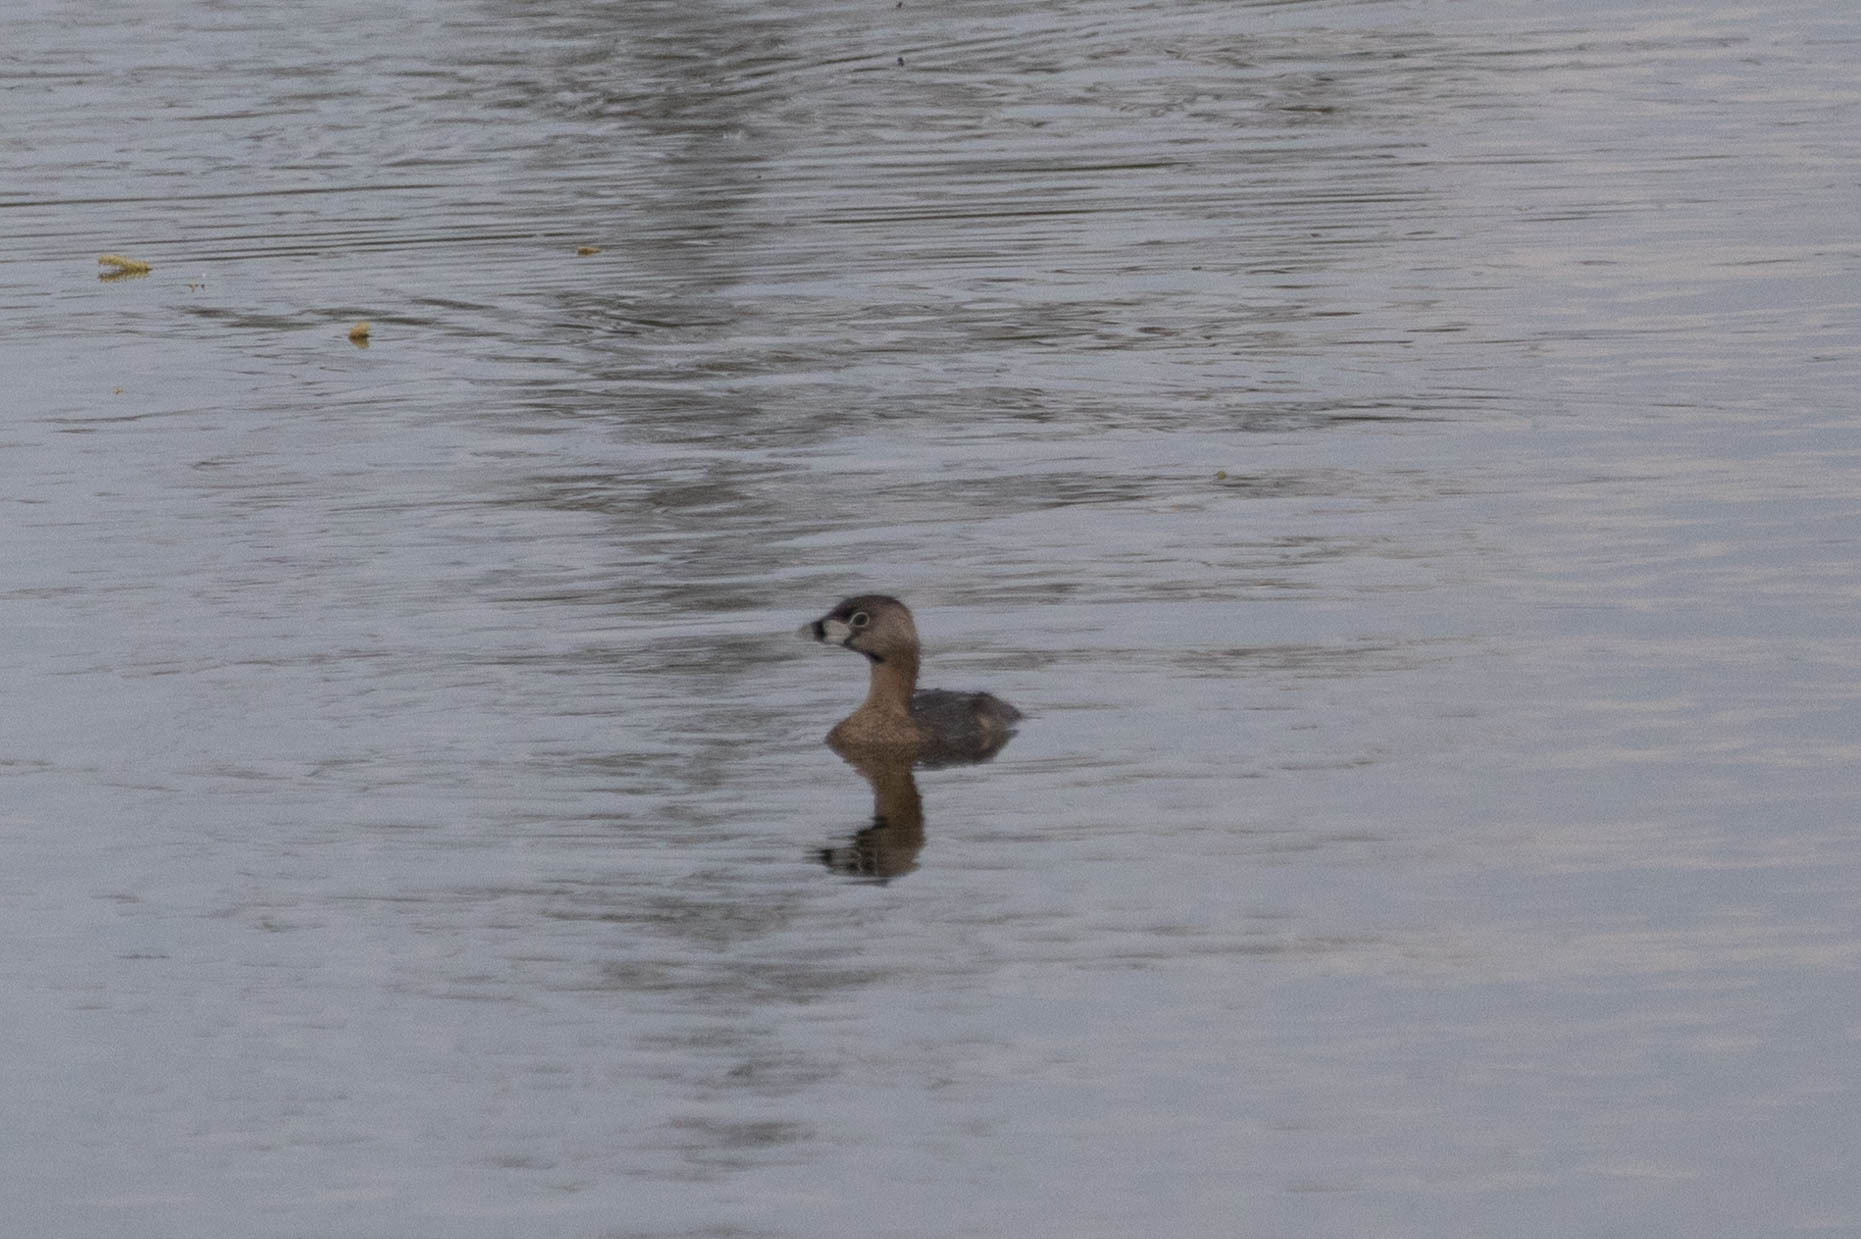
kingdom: Animalia
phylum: Chordata
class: Aves
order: Podicipediformes
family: Podicipedidae
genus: Podilymbus
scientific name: Podilymbus podiceps
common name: Pied-billed grebe
